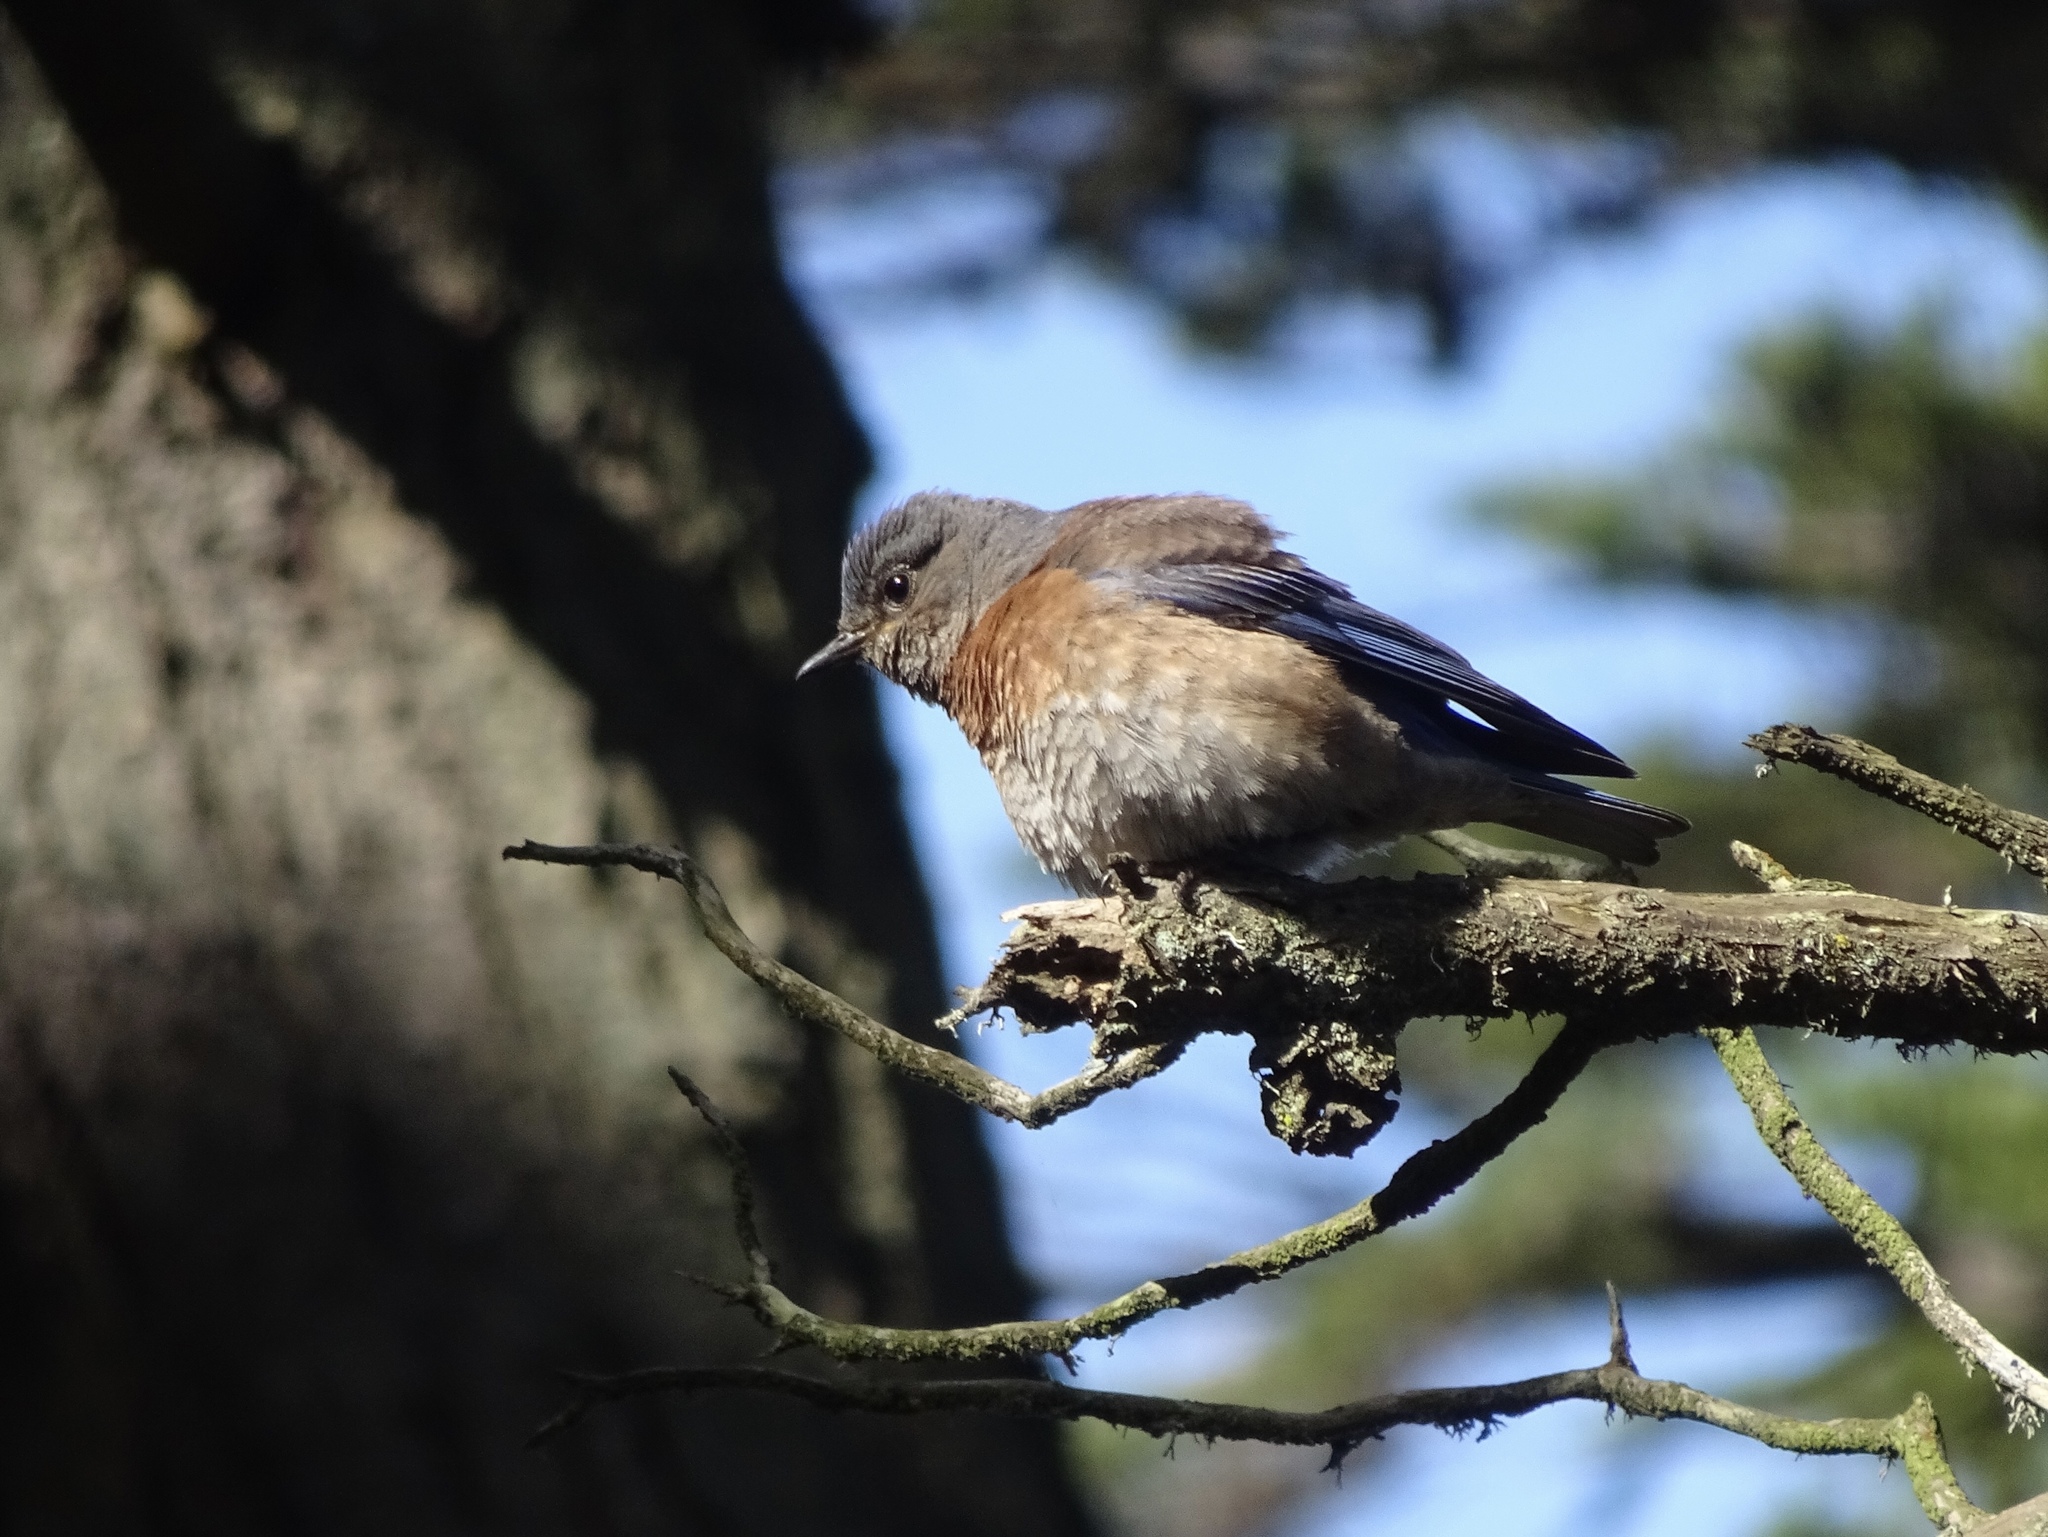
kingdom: Animalia
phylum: Chordata
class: Aves
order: Passeriformes
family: Turdidae
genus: Sialia
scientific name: Sialia mexicana
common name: Western bluebird
